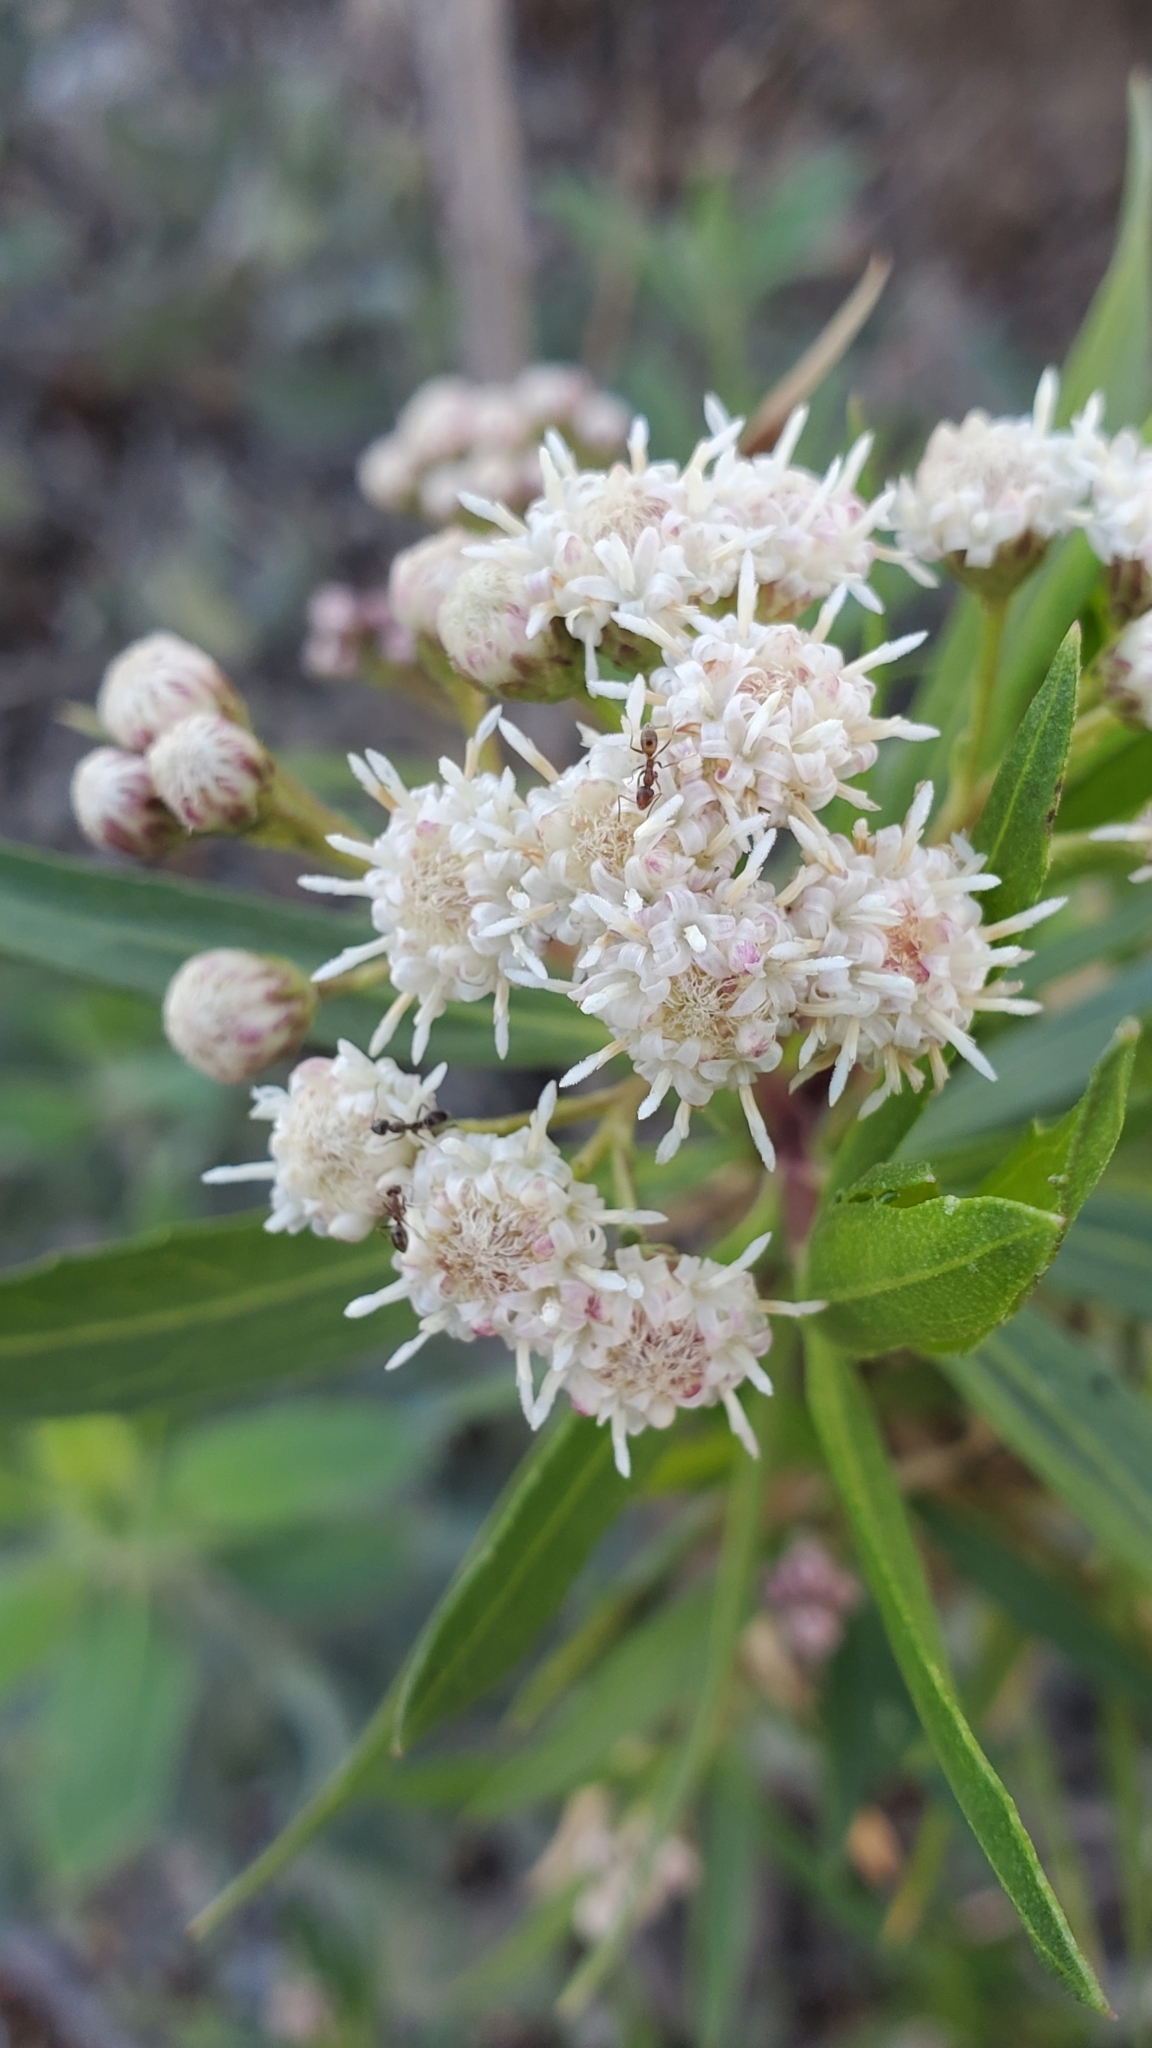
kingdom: Plantae
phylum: Tracheophyta
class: Magnoliopsida
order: Asterales
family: Asteraceae
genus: Baccharis
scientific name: Baccharis salicifolia
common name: Sticky baccharis
